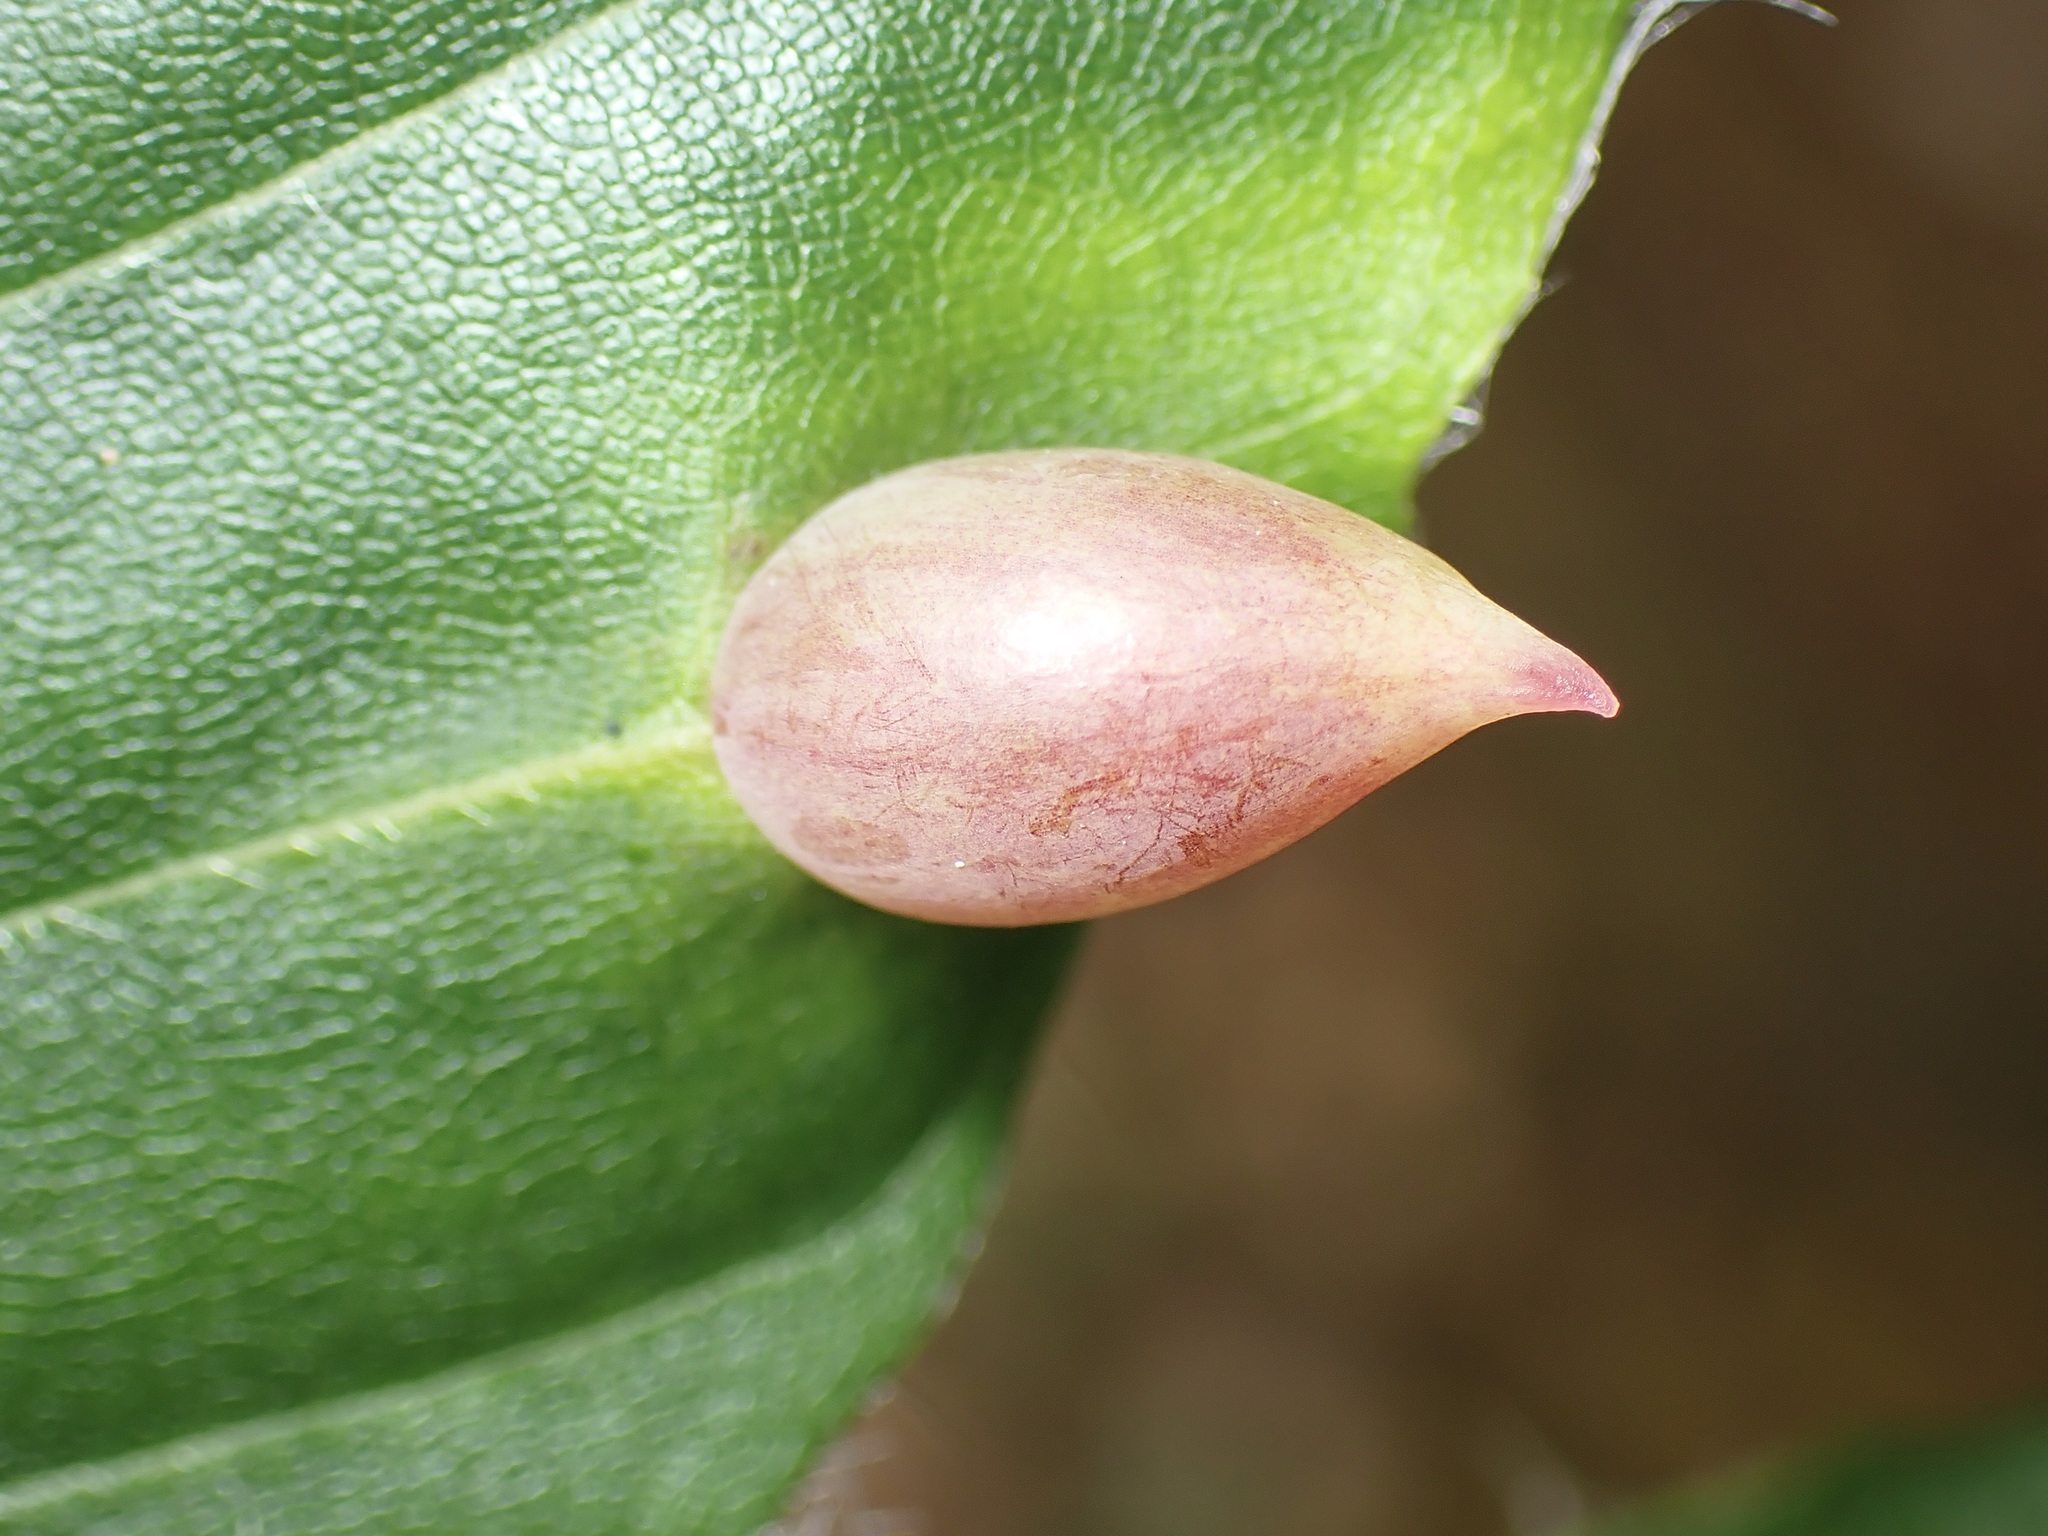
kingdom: Animalia
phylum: Arthropoda
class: Insecta
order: Diptera
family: Cecidomyiidae
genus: Mikiola
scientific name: Mikiola fagi
